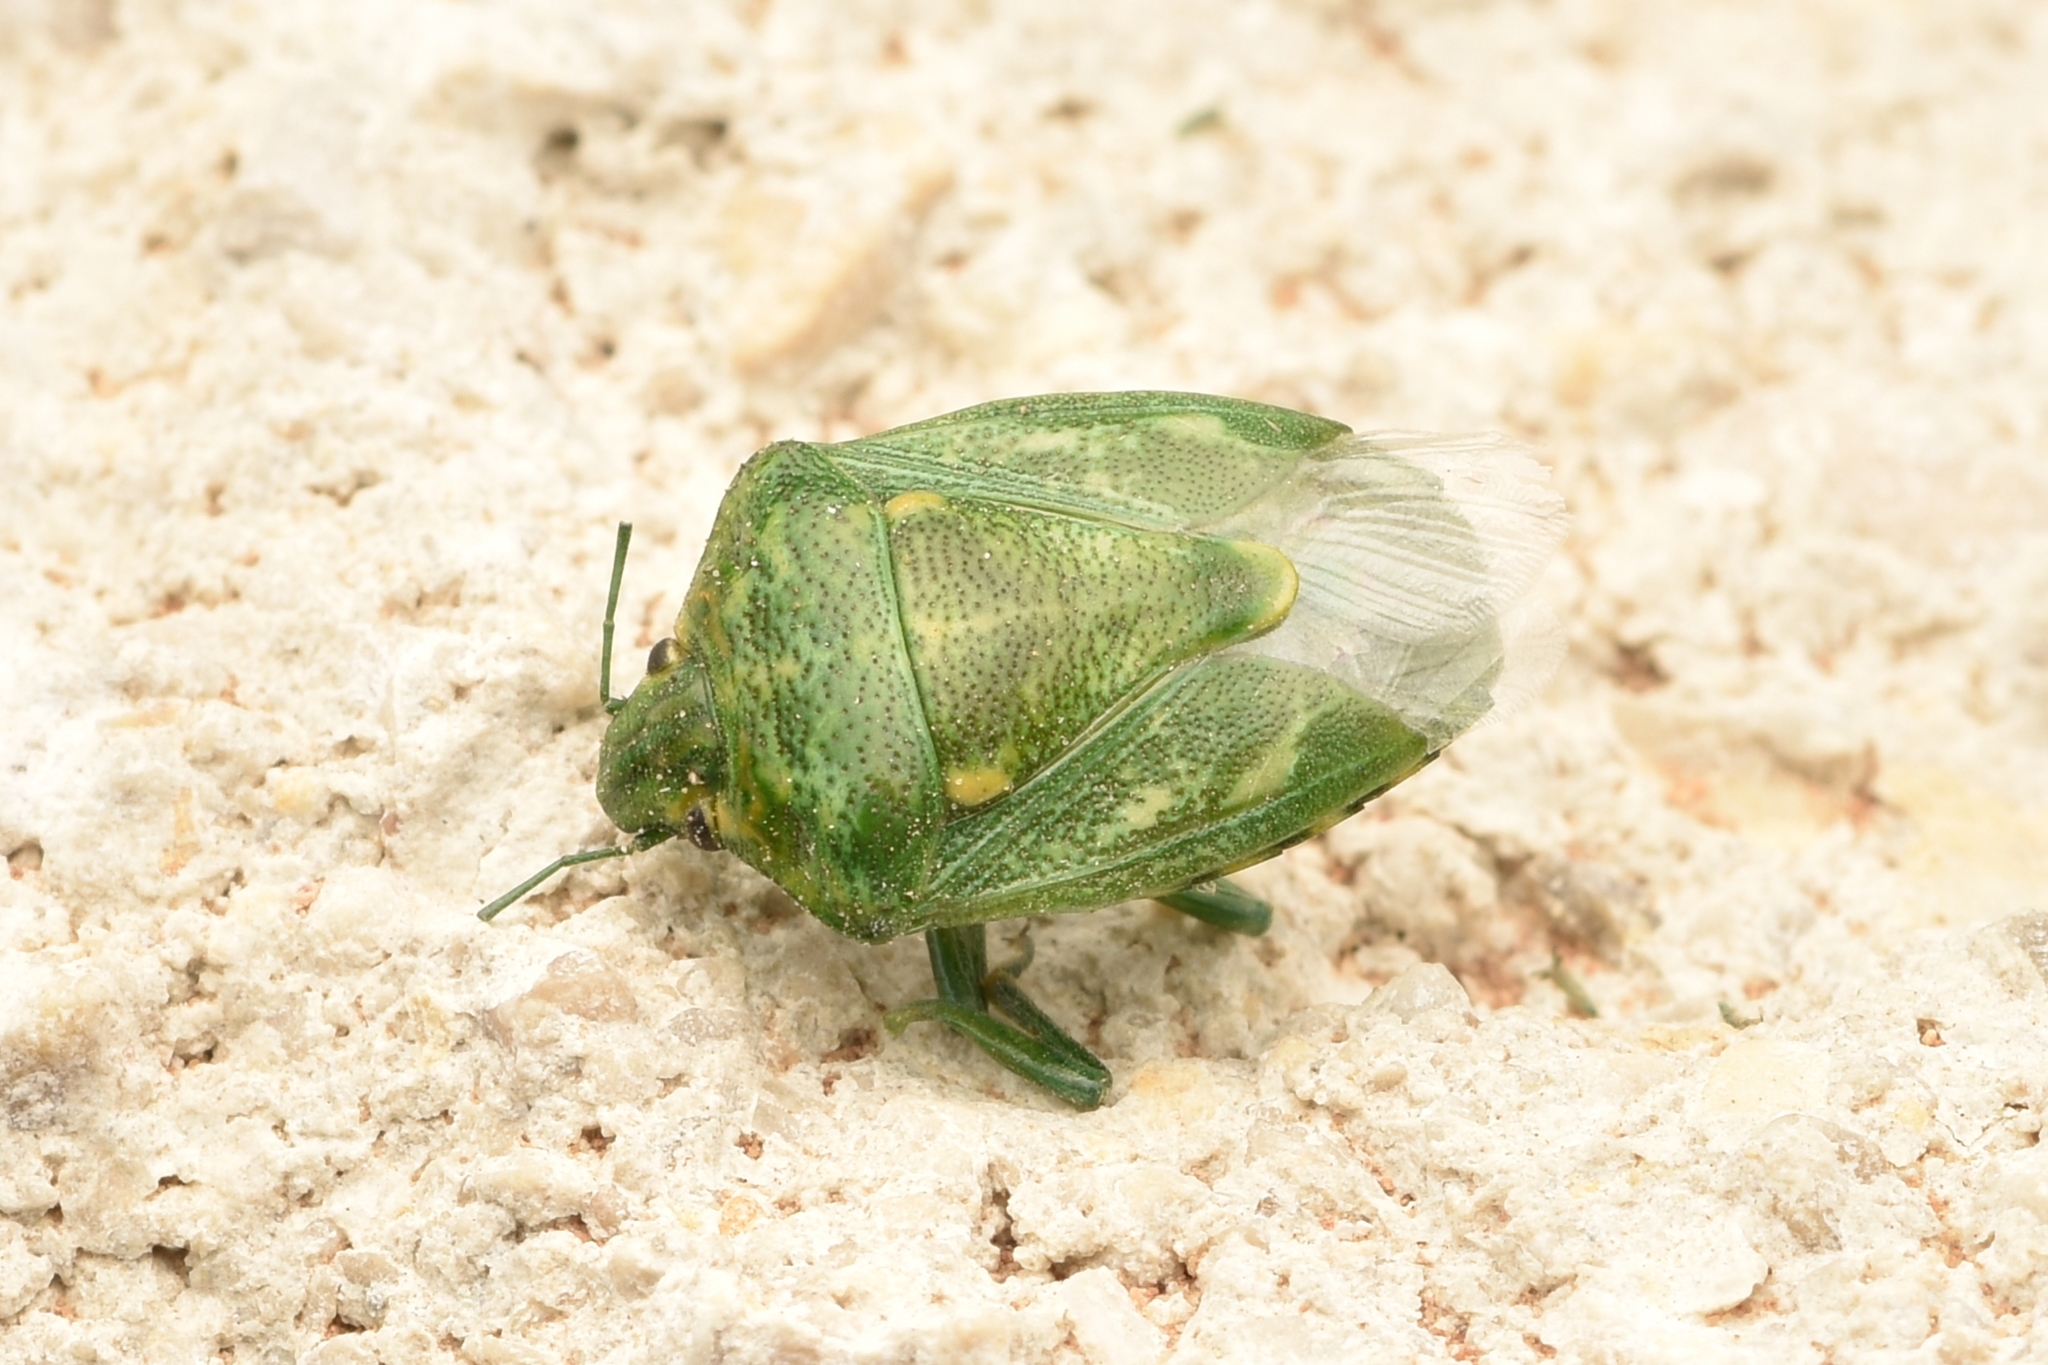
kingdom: Animalia
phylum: Arthropoda
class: Insecta
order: Hemiptera
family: Pentatomidae
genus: Banasa
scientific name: Banasa euchlora
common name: Cedar berry bug
